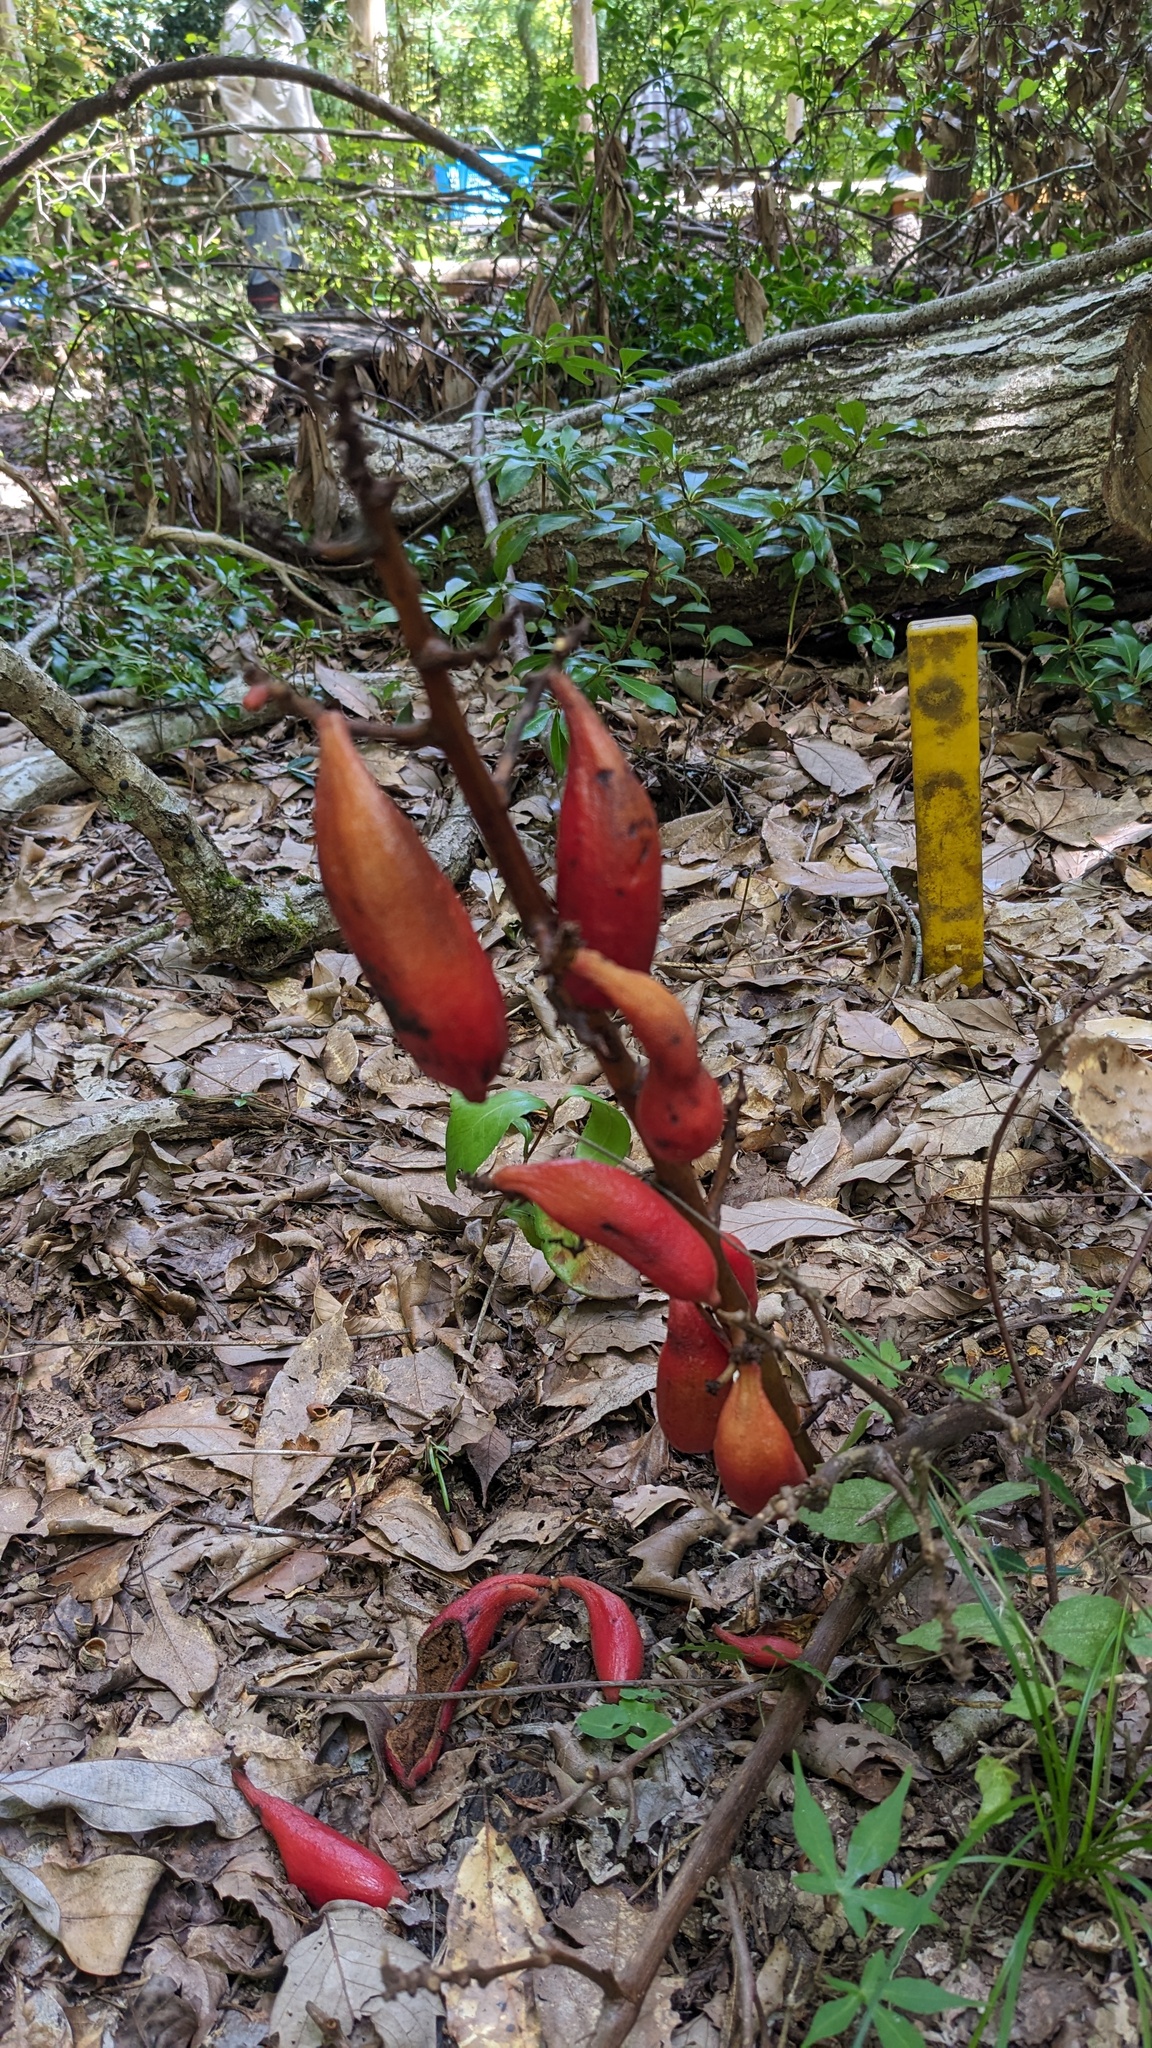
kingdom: Plantae
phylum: Tracheophyta
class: Liliopsida
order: Asparagales
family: Orchidaceae
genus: Cyrtosia
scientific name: Cyrtosia septentrionalis
